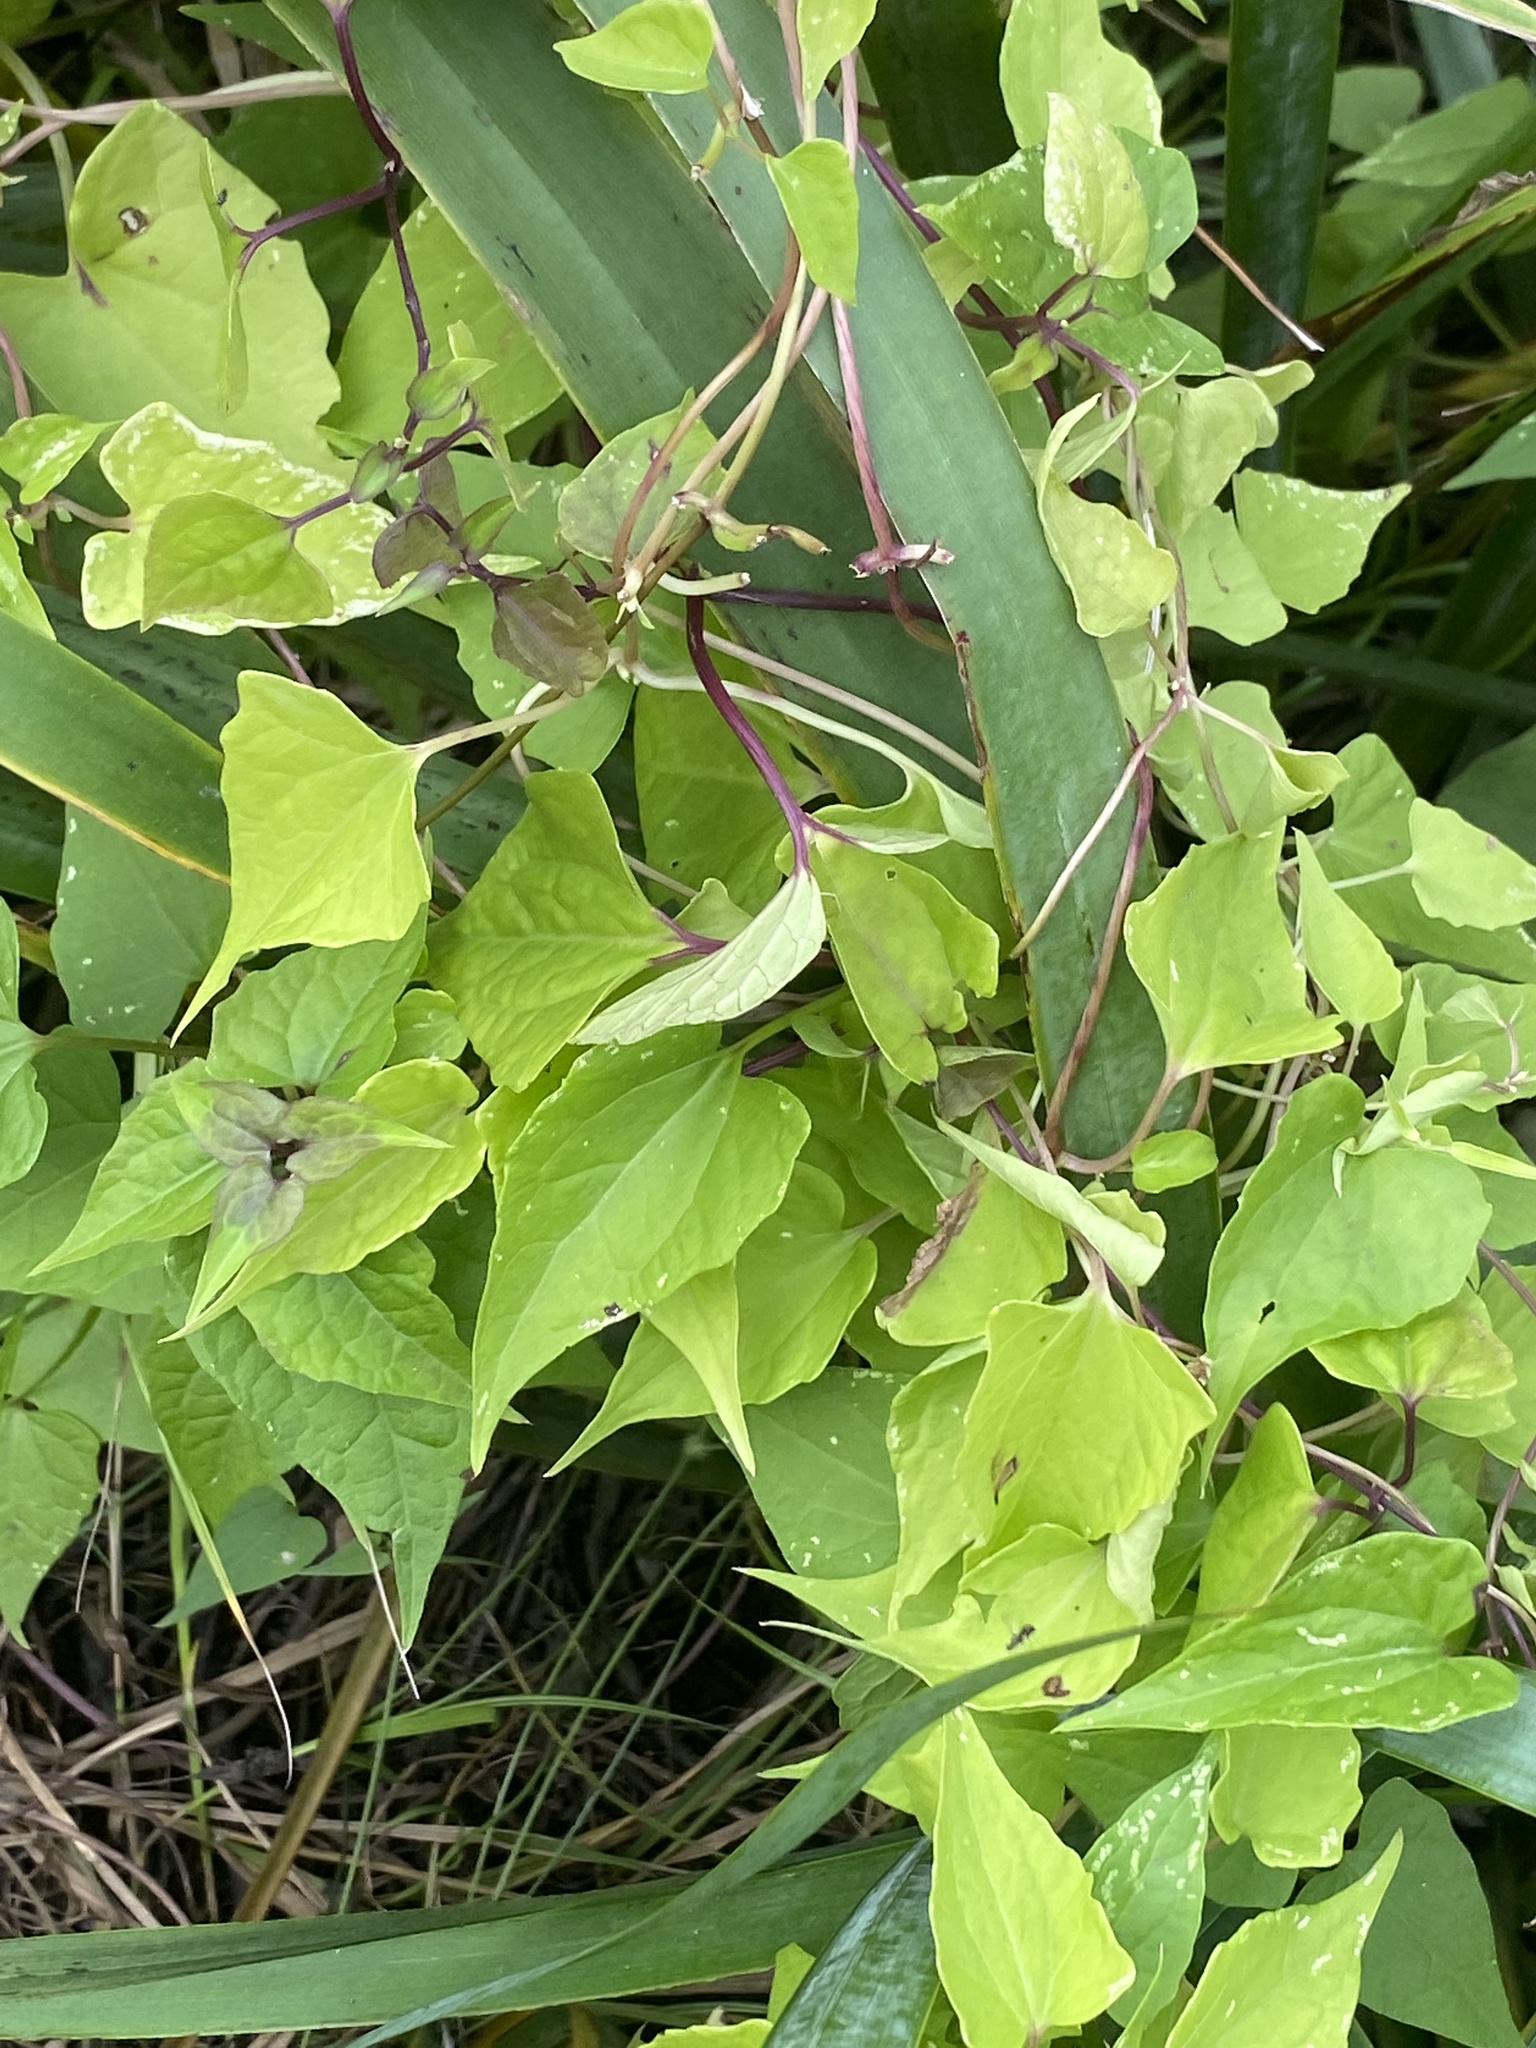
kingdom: Plantae
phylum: Tracheophyta
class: Magnoliopsida
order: Asterales
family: Asteraceae
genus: Mikania
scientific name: Mikania scandens
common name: Climbing hempvine
